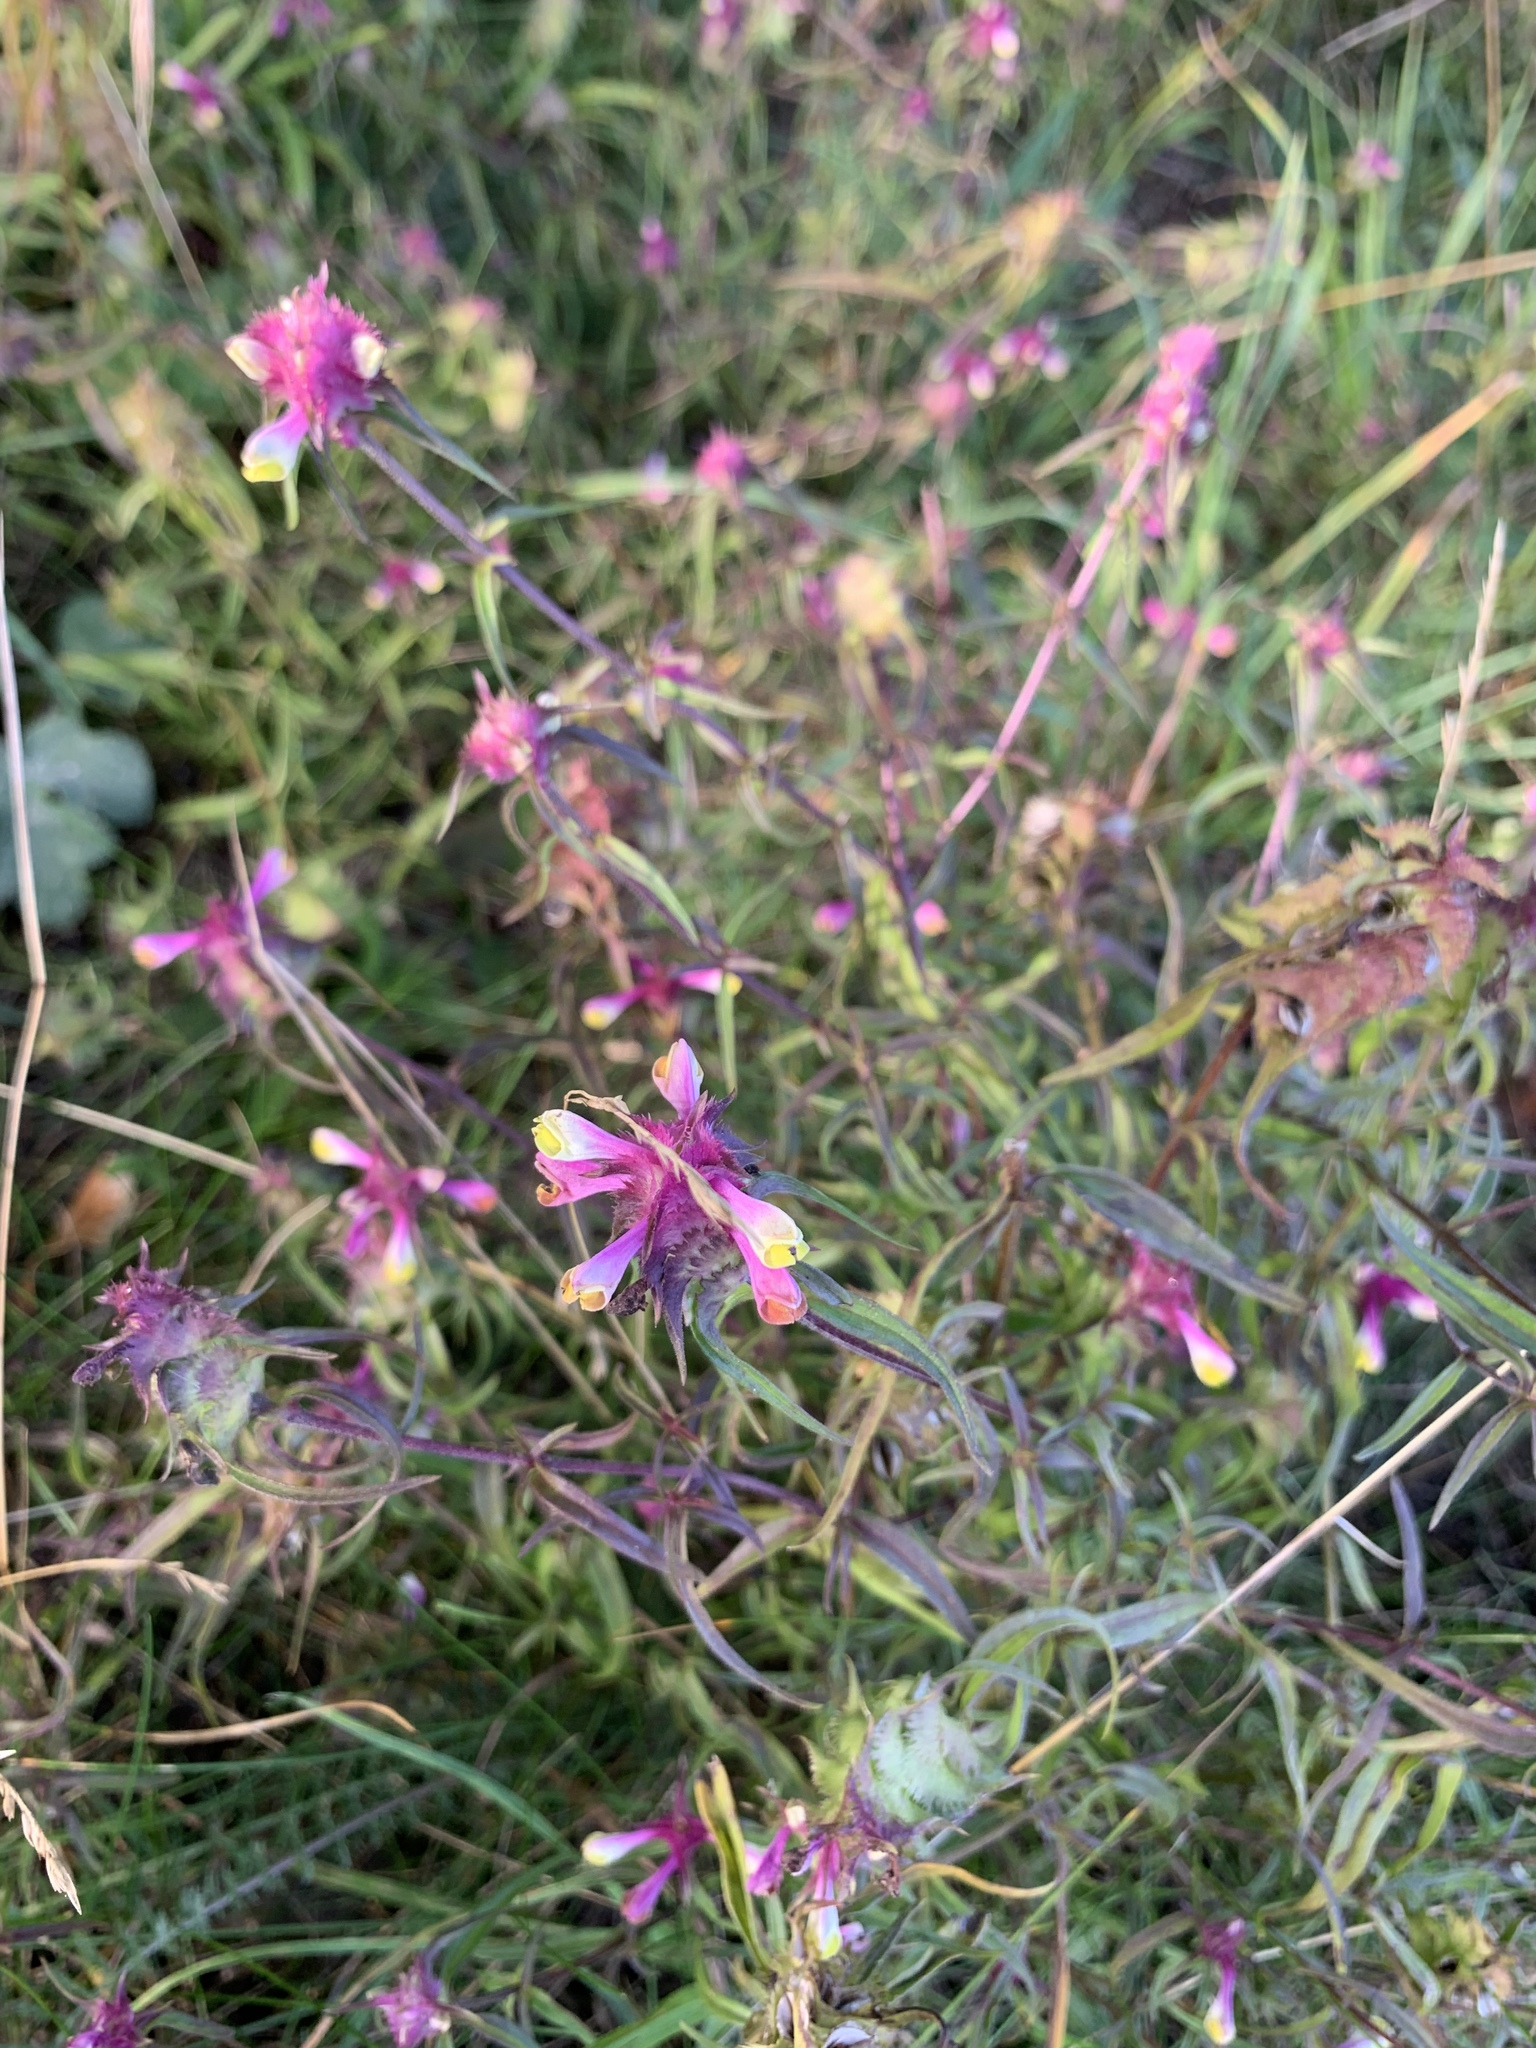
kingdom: Plantae
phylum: Tracheophyta
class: Magnoliopsida
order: Lamiales
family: Orobanchaceae
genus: Melampyrum
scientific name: Melampyrum cristatum
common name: Crested cow-wheat
